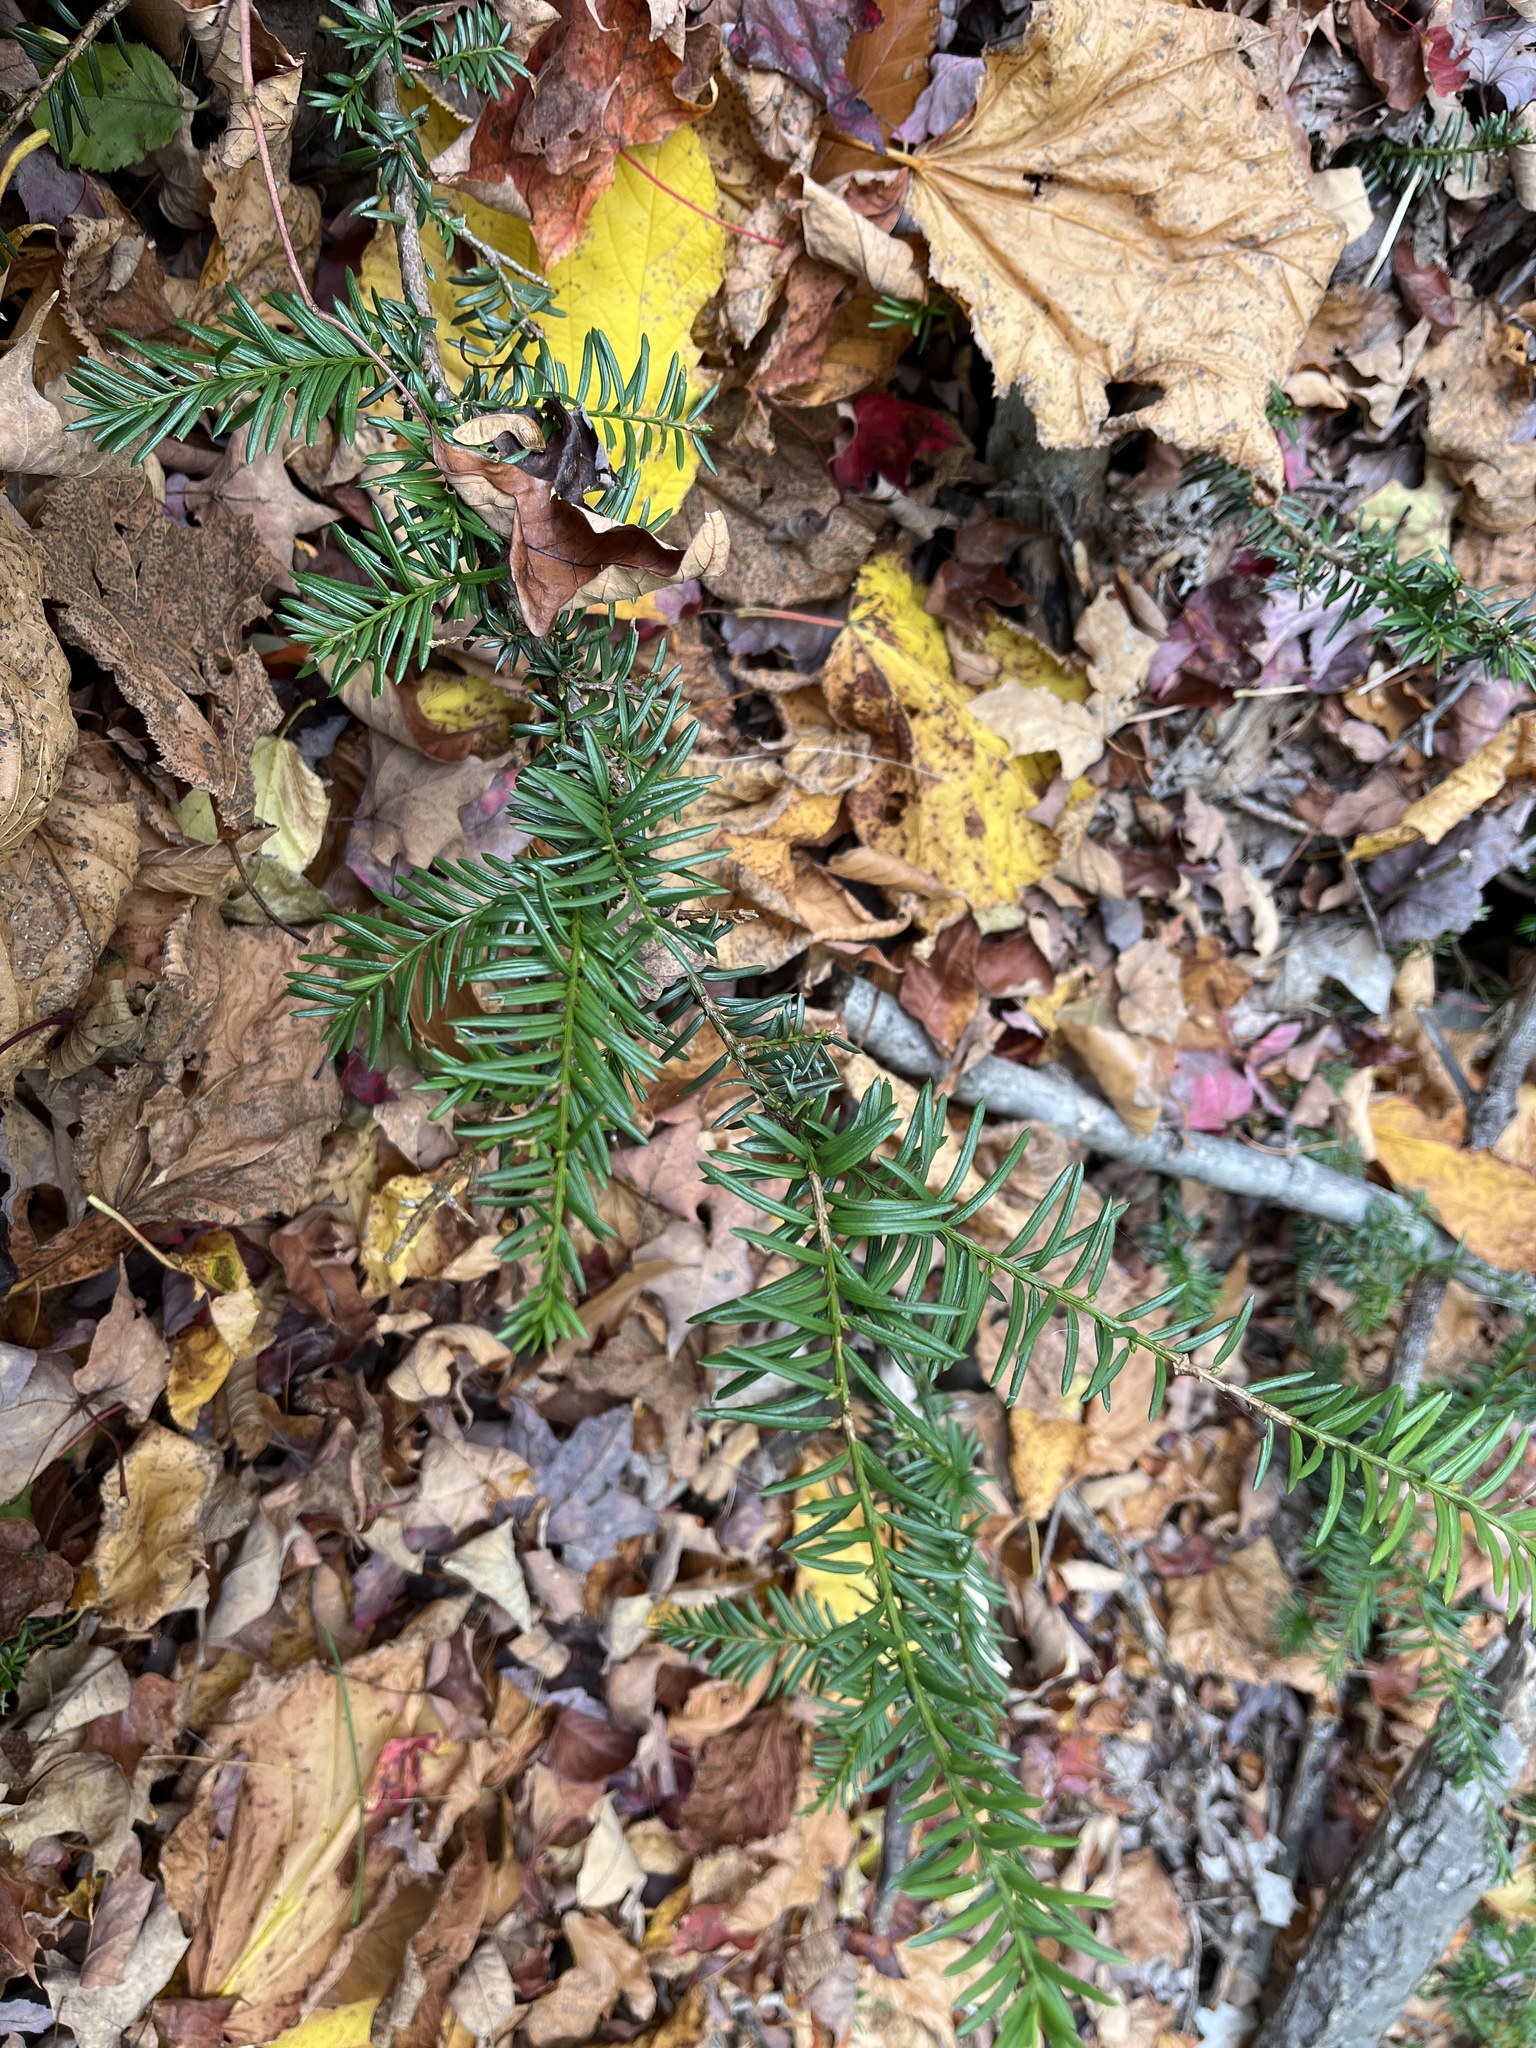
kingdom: Plantae
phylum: Tracheophyta
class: Pinopsida
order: Pinales
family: Taxaceae
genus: Taxus
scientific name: Taxus canadensis
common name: American yew
